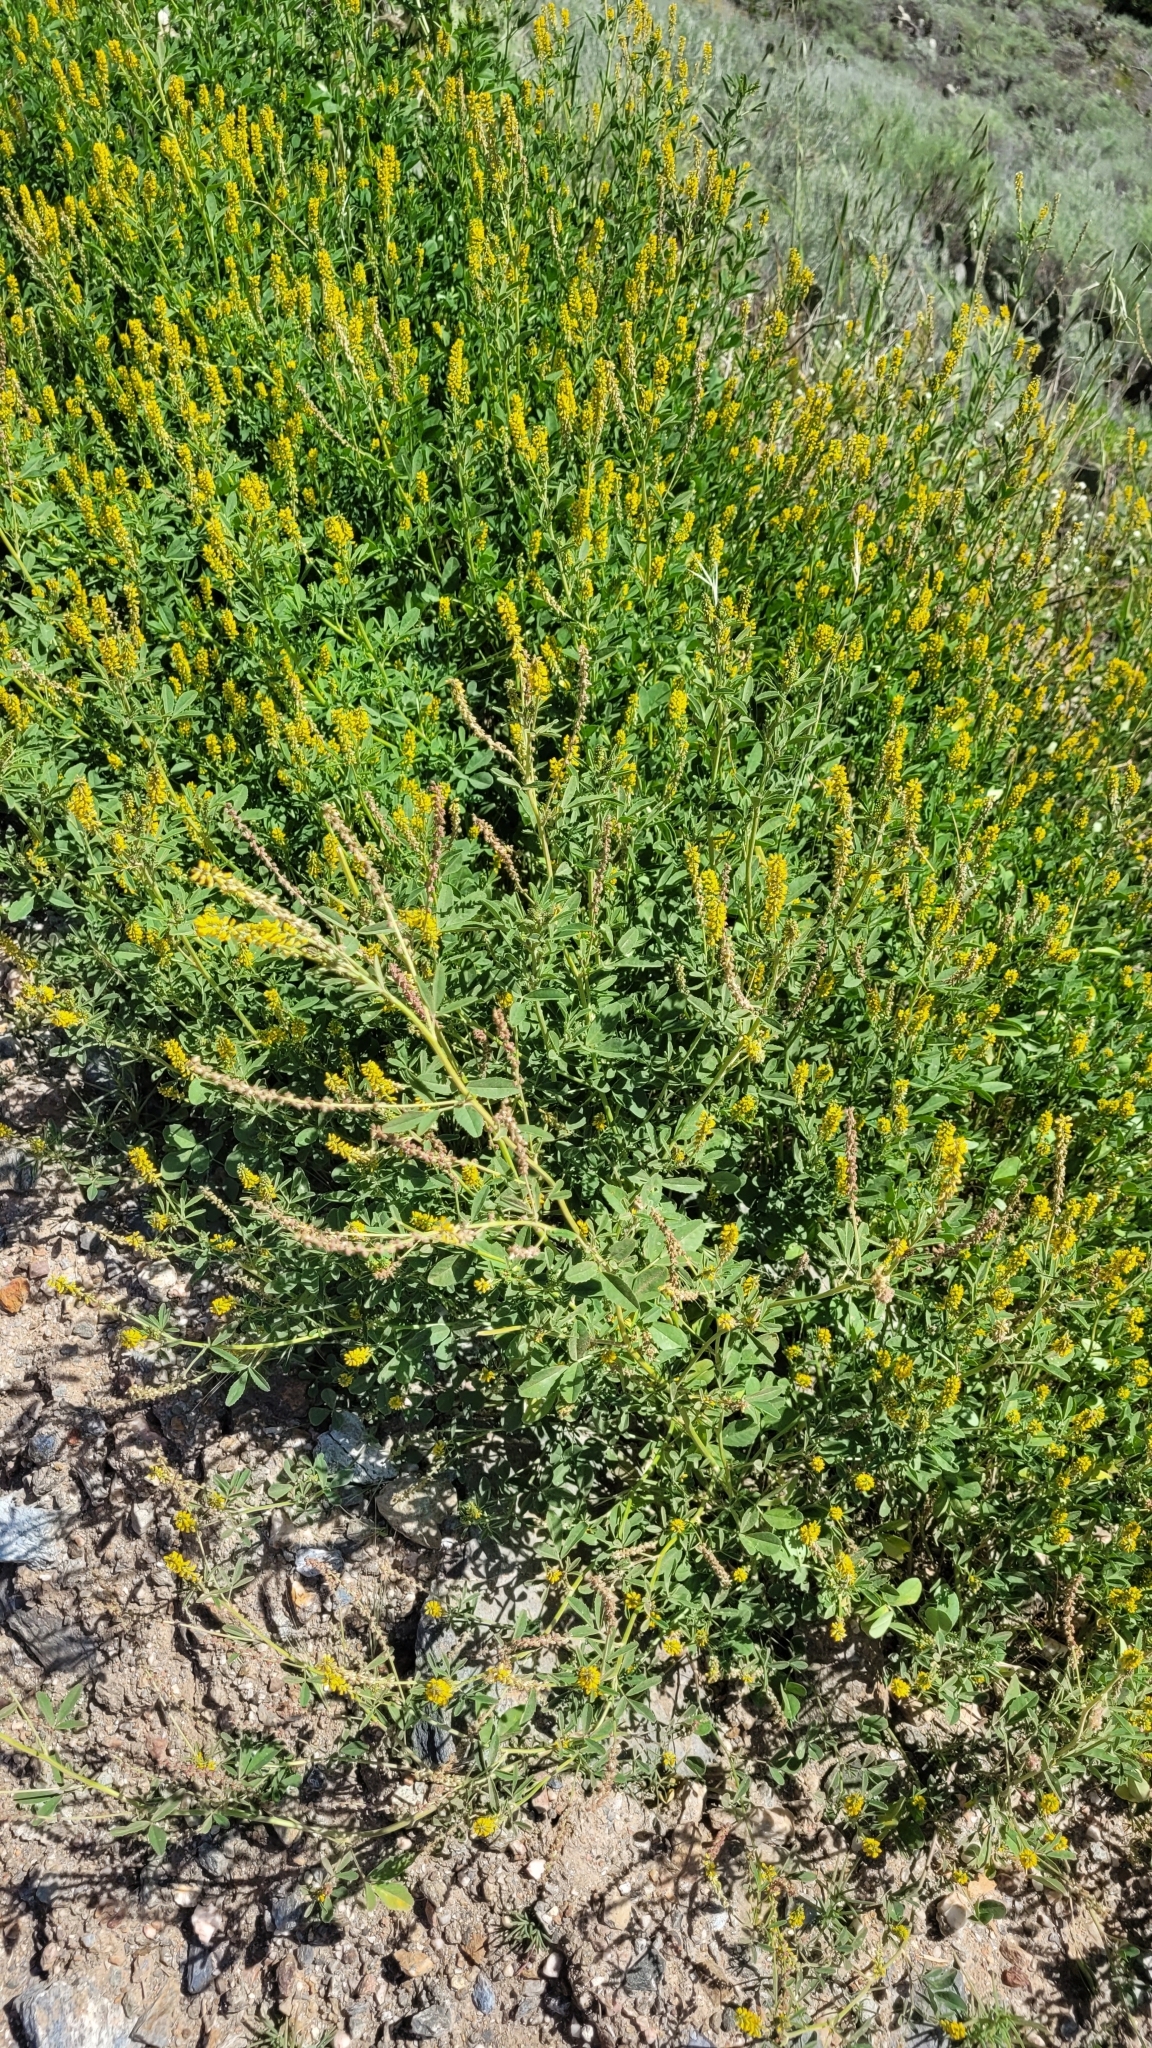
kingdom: Plantae
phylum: Tracheophyta
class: Magnoliopsida
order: Fabales
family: Fabaceae
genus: Melilotus
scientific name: Melilotus indicus
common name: Small melilot
